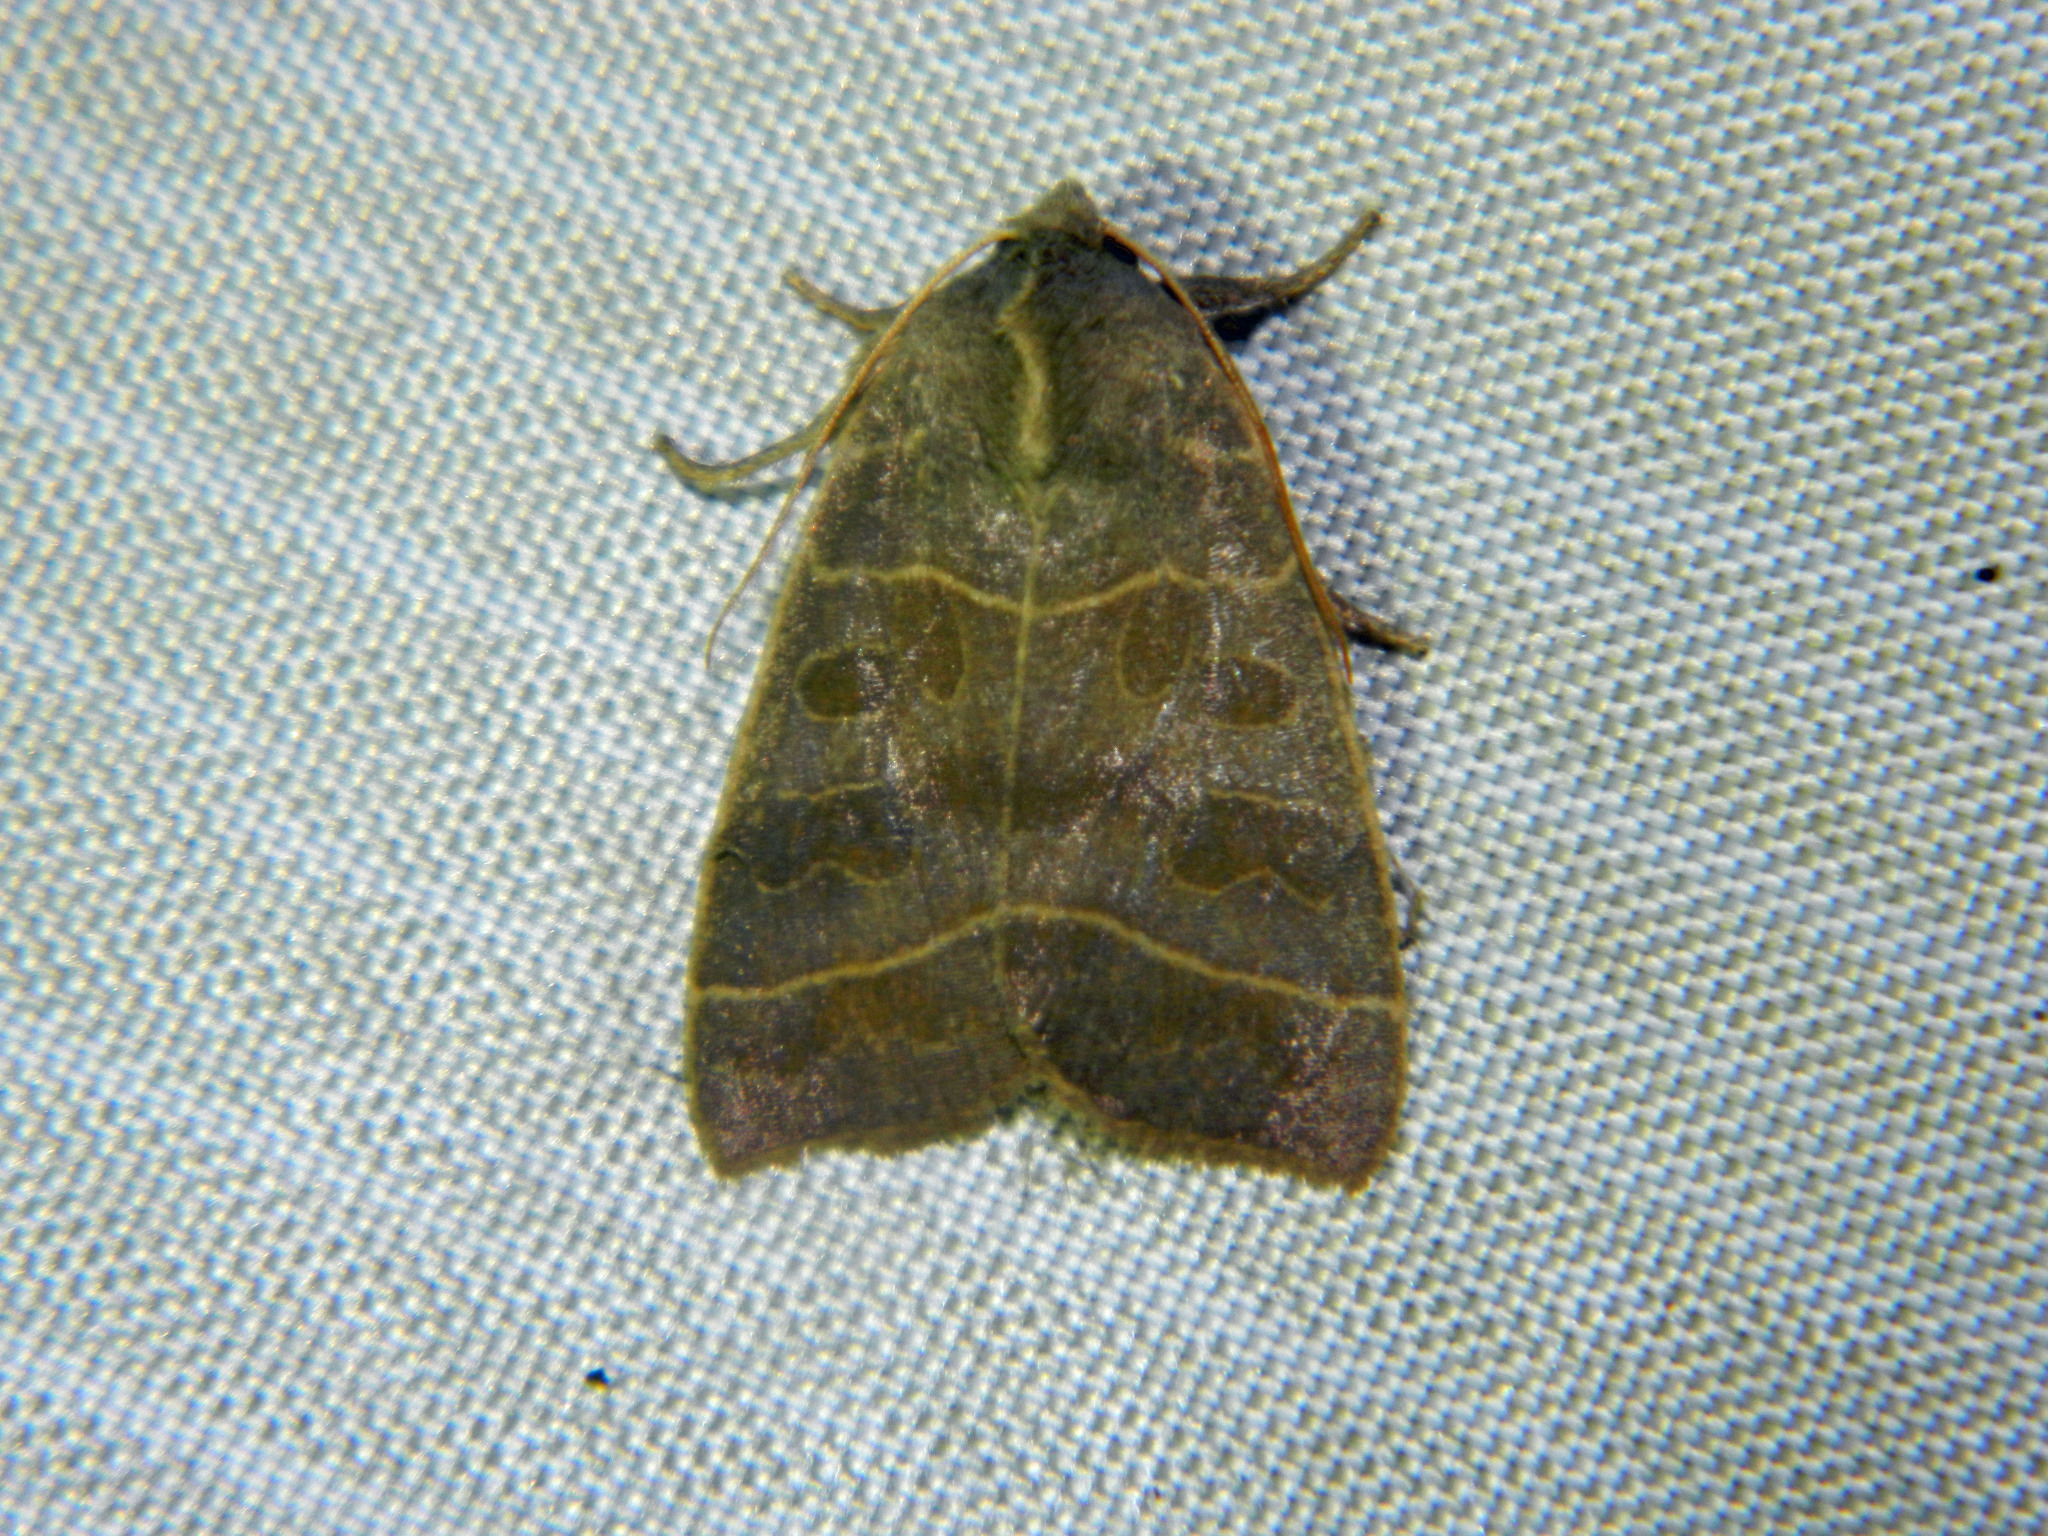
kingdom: Animalia
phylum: Arthropoda
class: Insecta
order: Lepidoptera
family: Noctuidae
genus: Ipimorpha
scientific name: Ipimorpha pleonectusa
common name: Even-lined sallow
